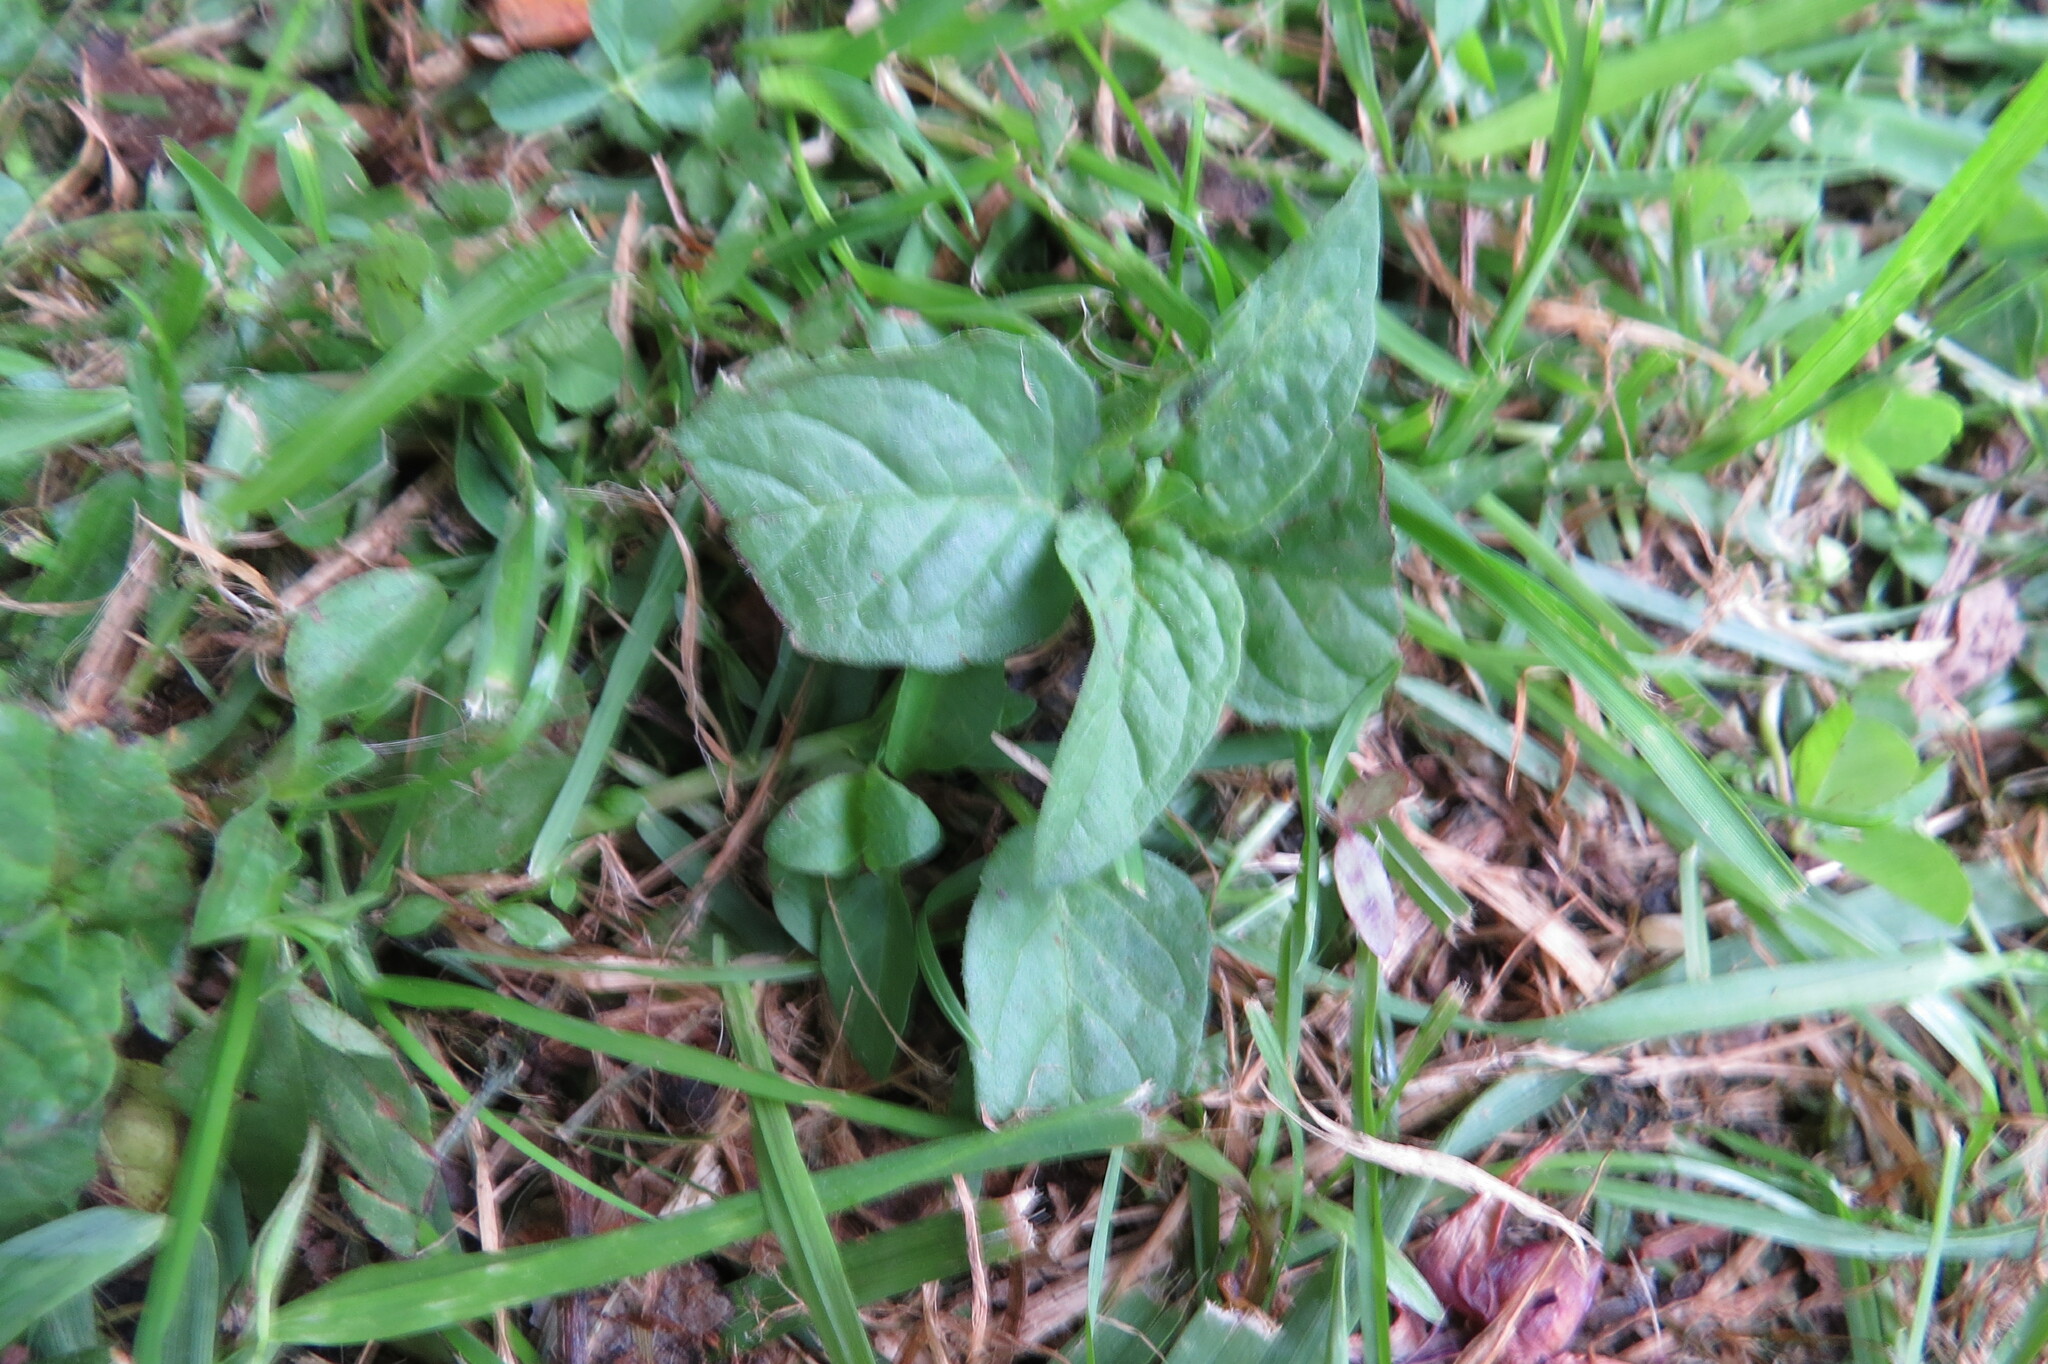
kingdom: Plantae
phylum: Tracheophyta
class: Magnoliopsida
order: Lamiales
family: Lamiaceae
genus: Prunella
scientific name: Prunella vulgaris
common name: Heal-all
